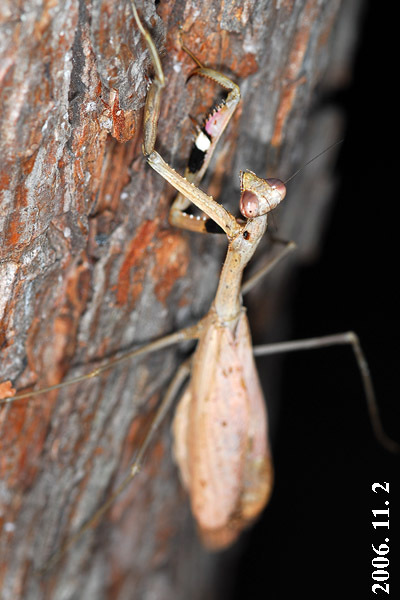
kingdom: Animalia
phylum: Arthropoda
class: Insecta
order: Mantodea
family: Mantidae
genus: Statilia
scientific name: Statilia maculata
